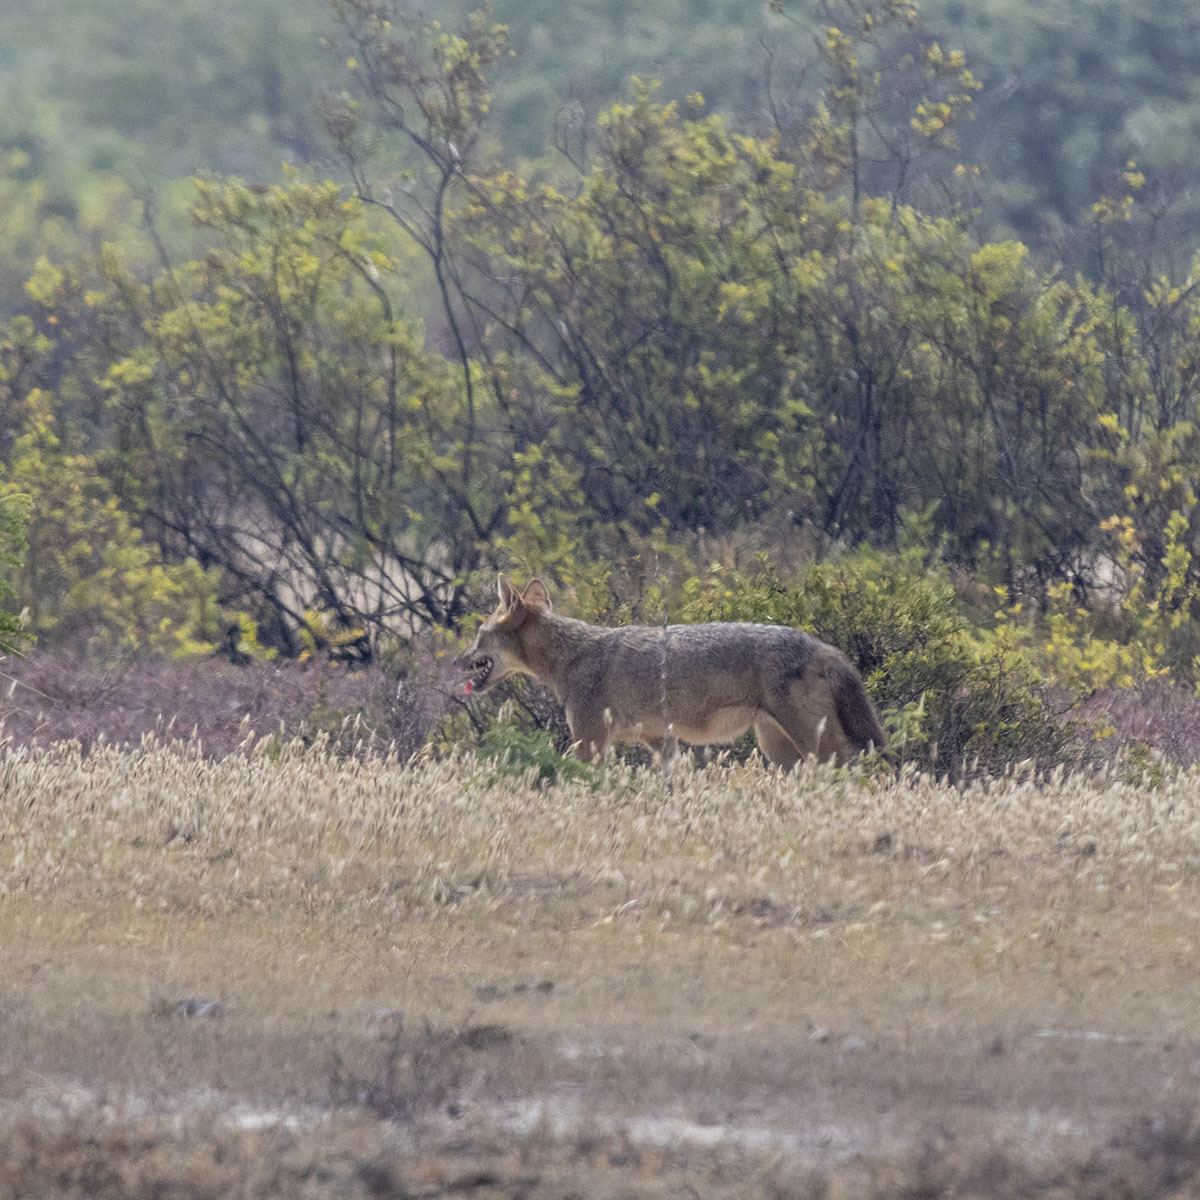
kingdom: Animalia
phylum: Chordata
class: Mammalia
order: Carnivora
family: Canidae
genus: Canis
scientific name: Canis aureus
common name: Golden jackal
